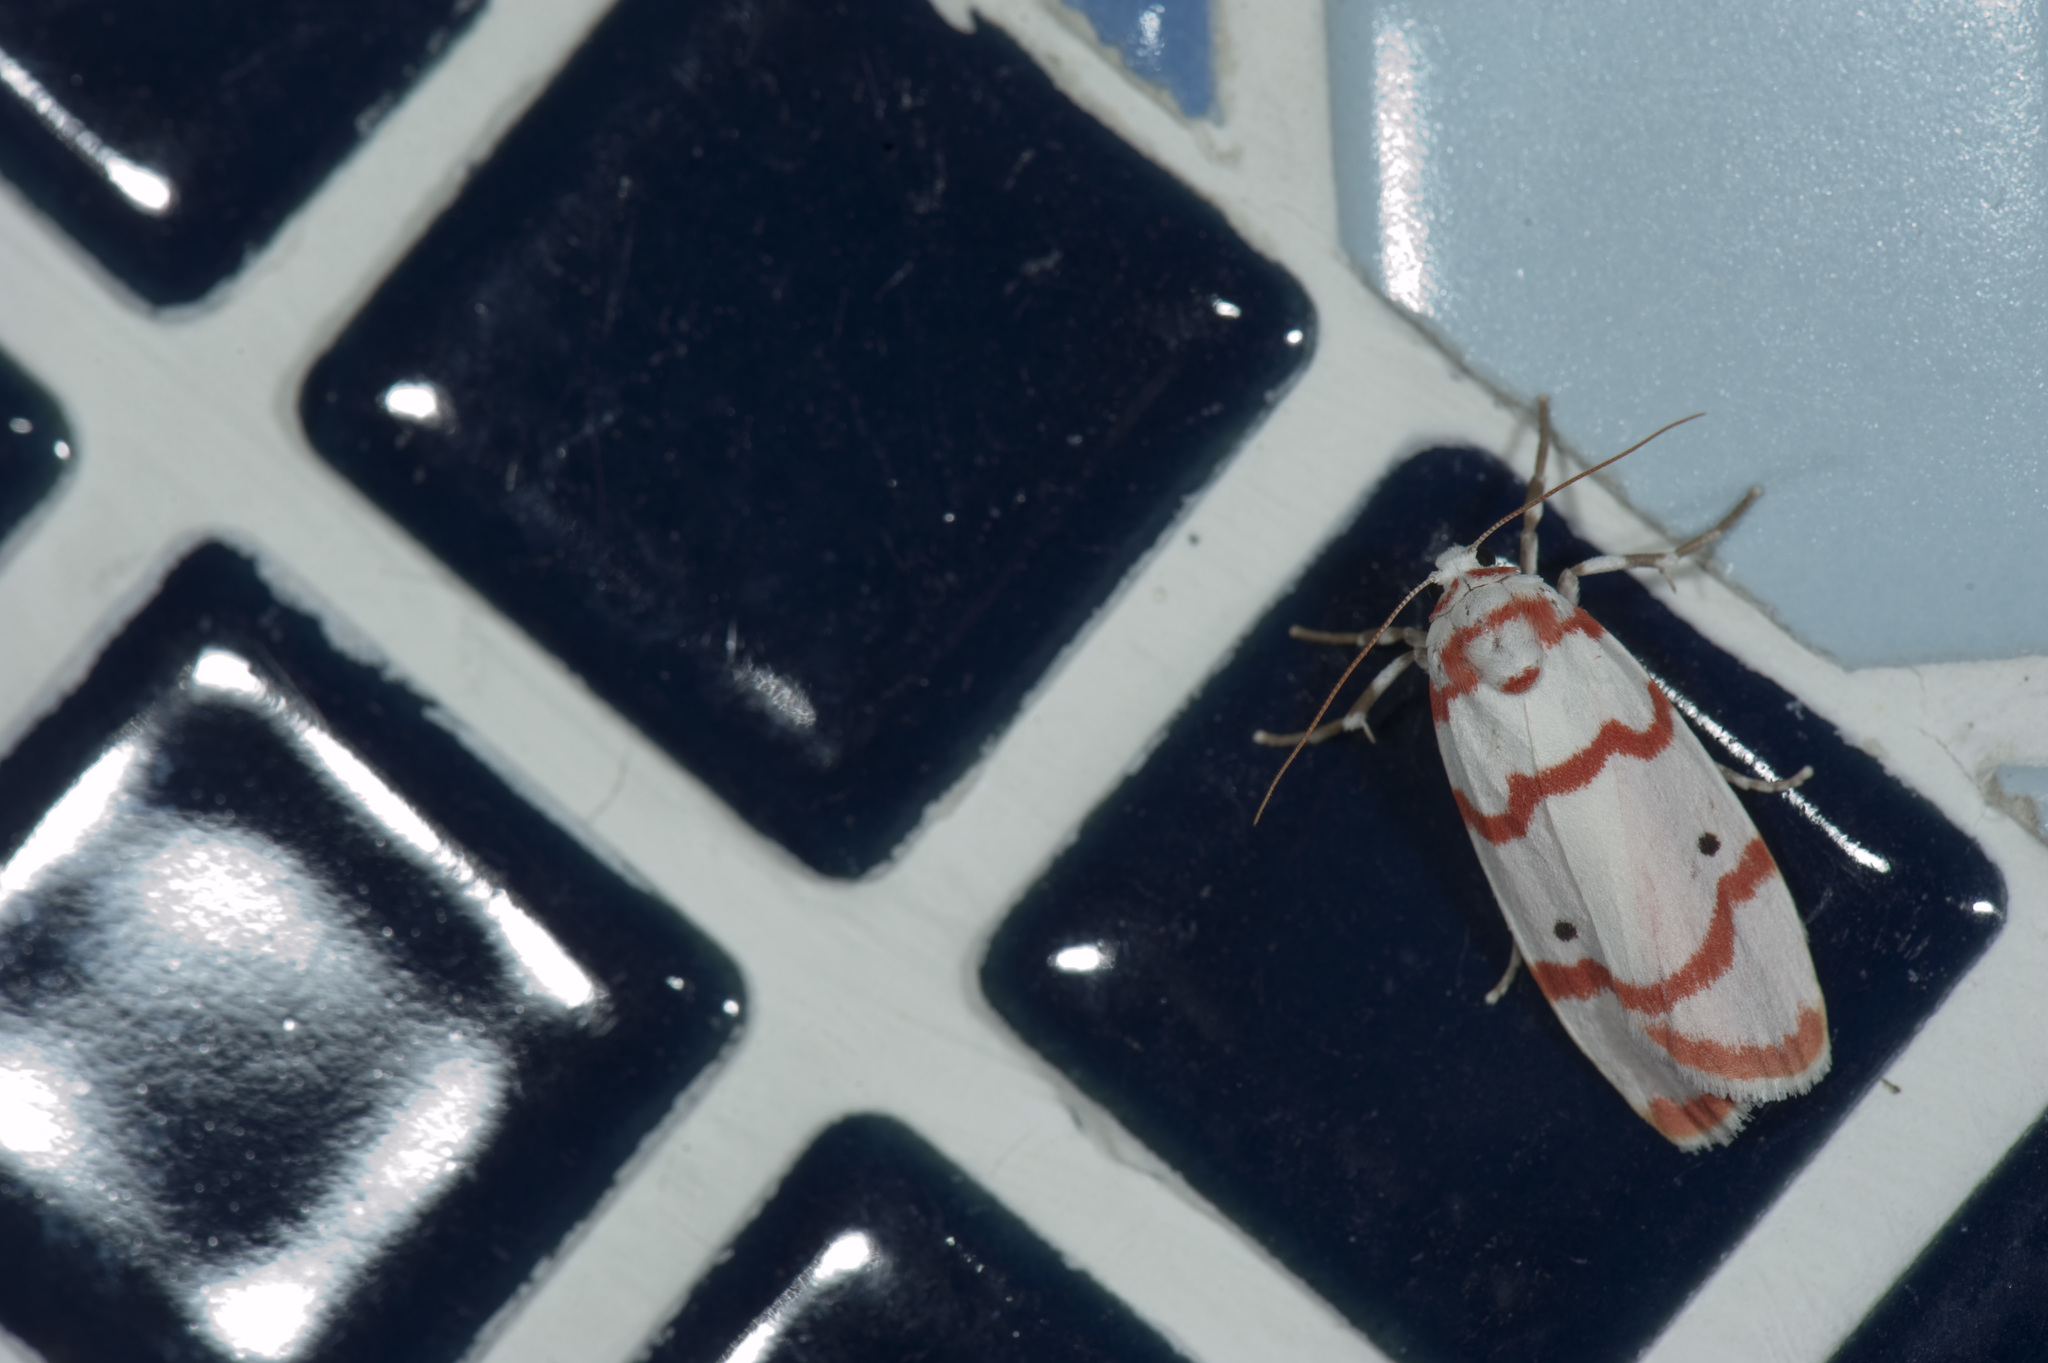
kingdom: Animalia
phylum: Arthropoda
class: Insecta
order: Lepidoptera
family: Erebidae
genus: Cyana
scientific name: Cyana hamata
